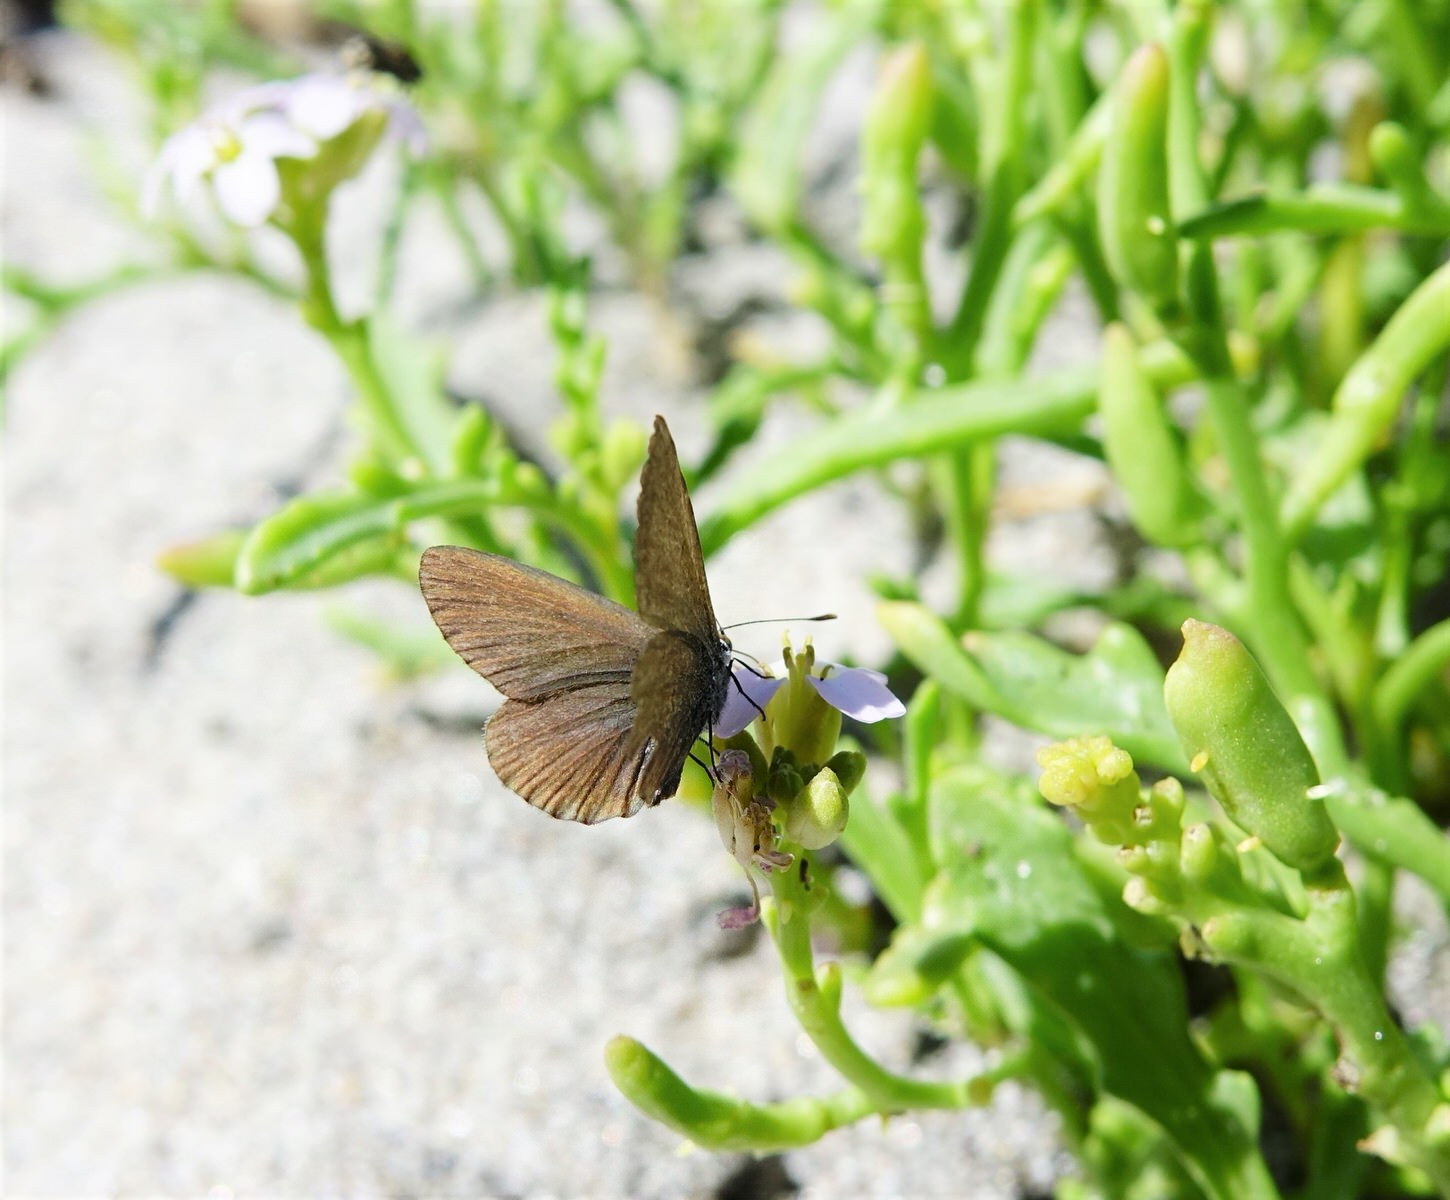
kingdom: Animalia
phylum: Arthropoda
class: Insecta
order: Lepidoptera
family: Lycaenidae
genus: Zizina
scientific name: Zizina labradus
